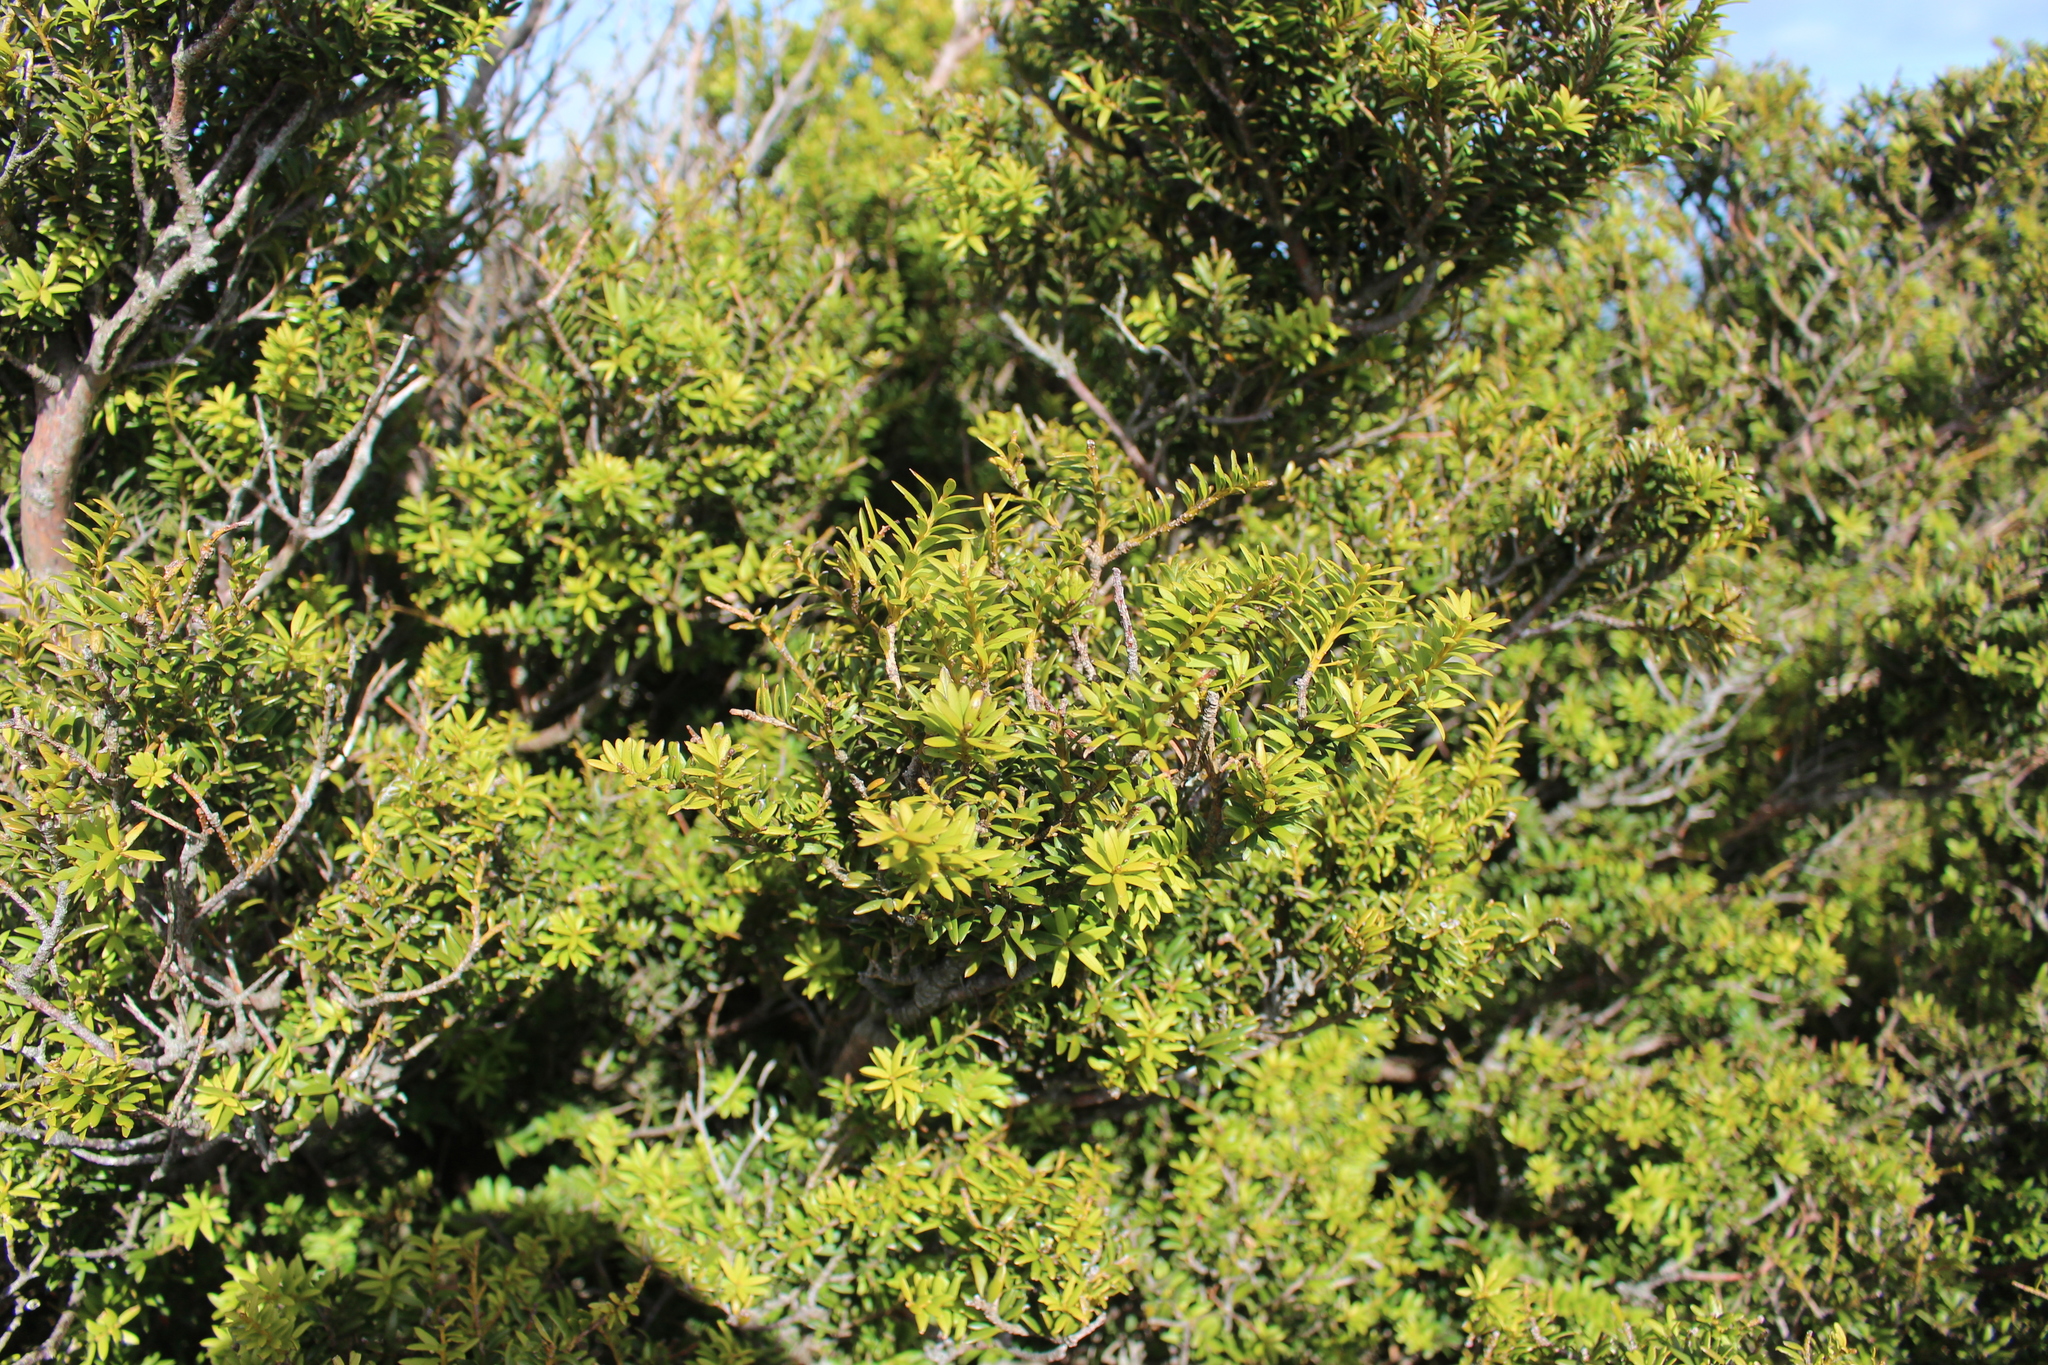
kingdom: Plantae
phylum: Tracheophyta
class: Pinopsida
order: Pinales
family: Podocarpaceae
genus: Podocarpus
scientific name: Podocarpus laetus
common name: Hall's totara
